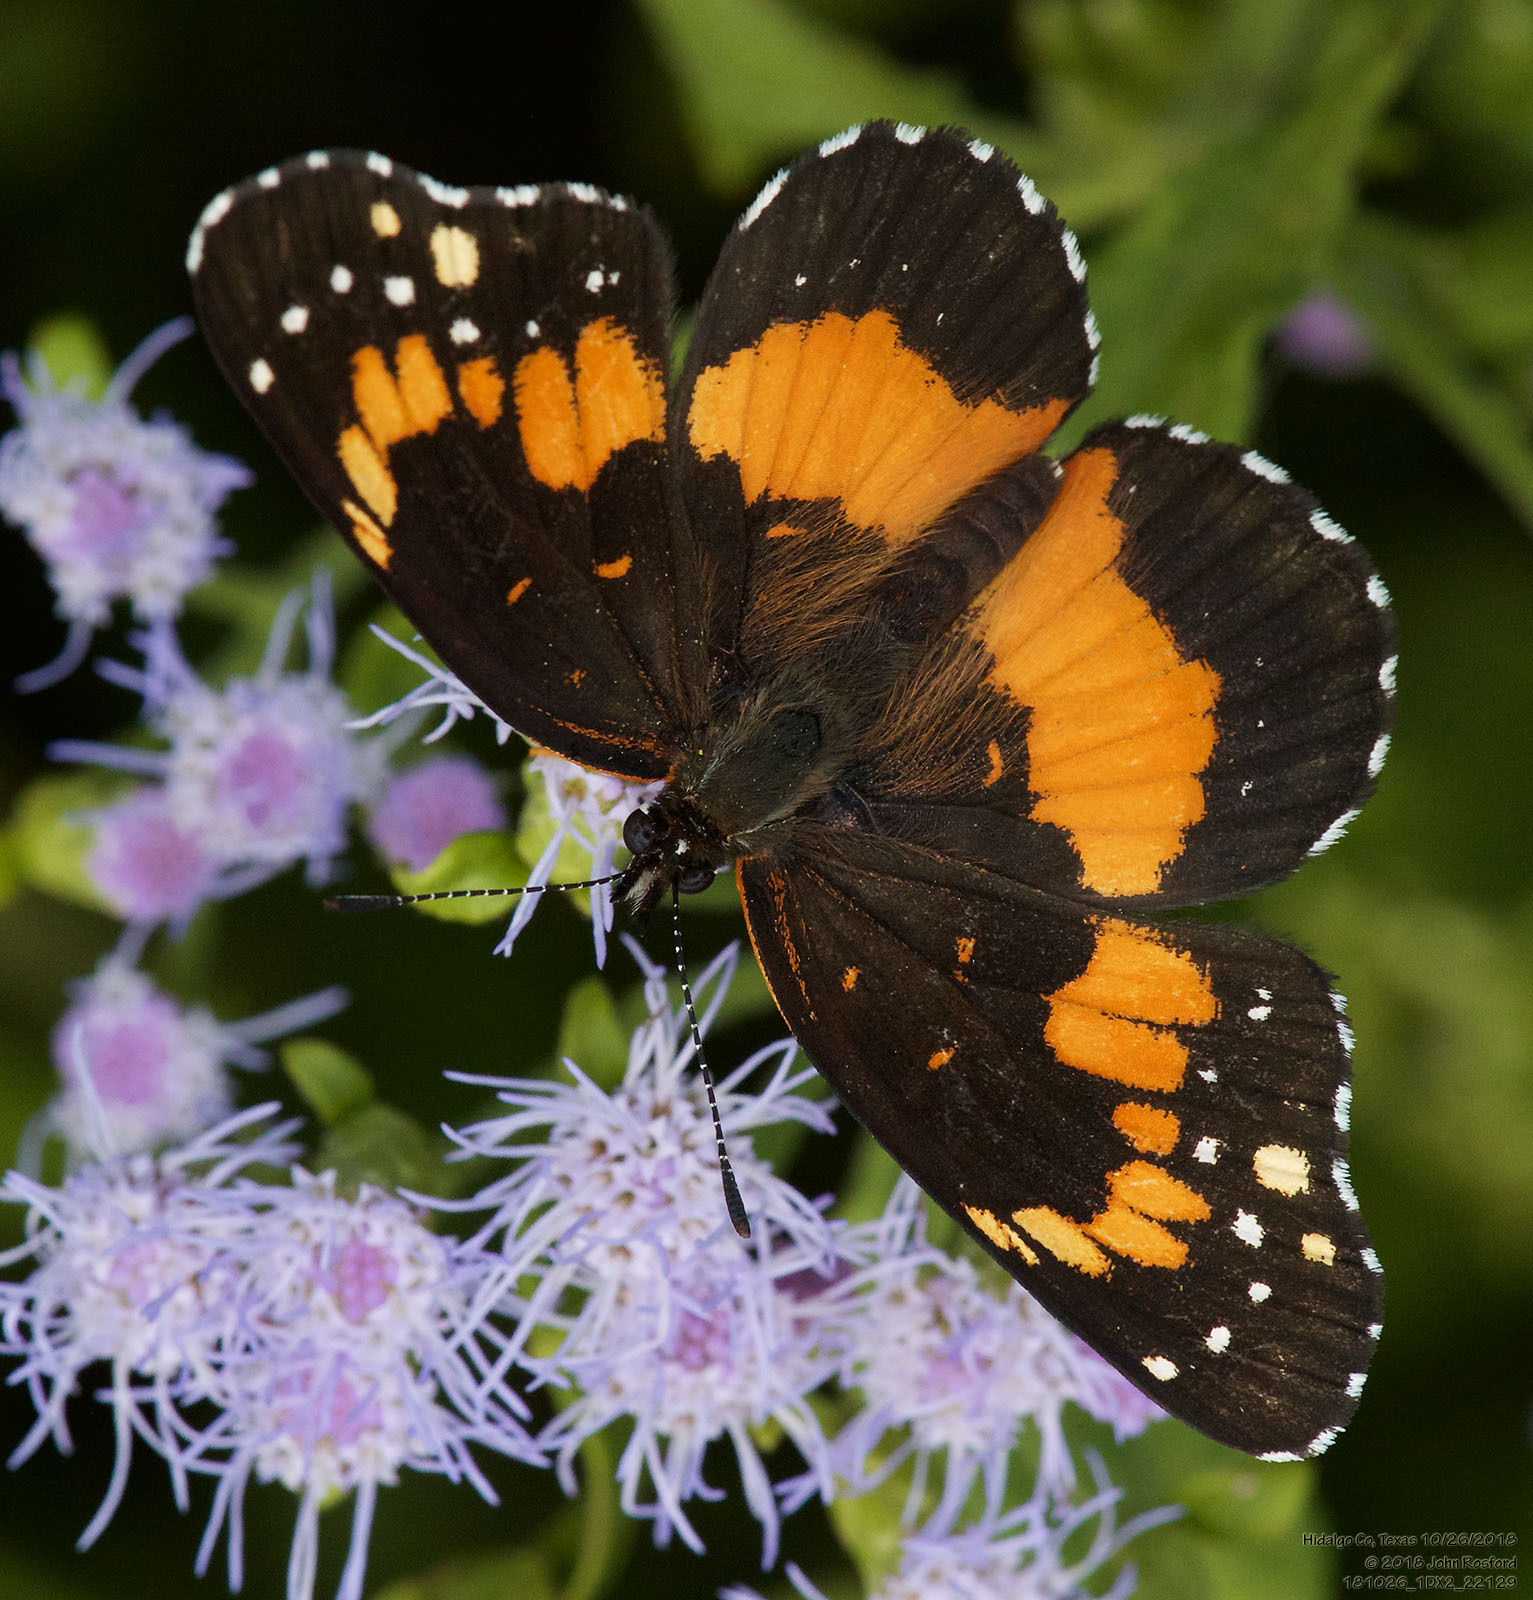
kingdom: Animalia
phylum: Arthropoda
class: Insecta
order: Lepidoptera
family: Nymphalidae
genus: Chlosyne
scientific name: Chlosyne lacinia
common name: Bordered patch
